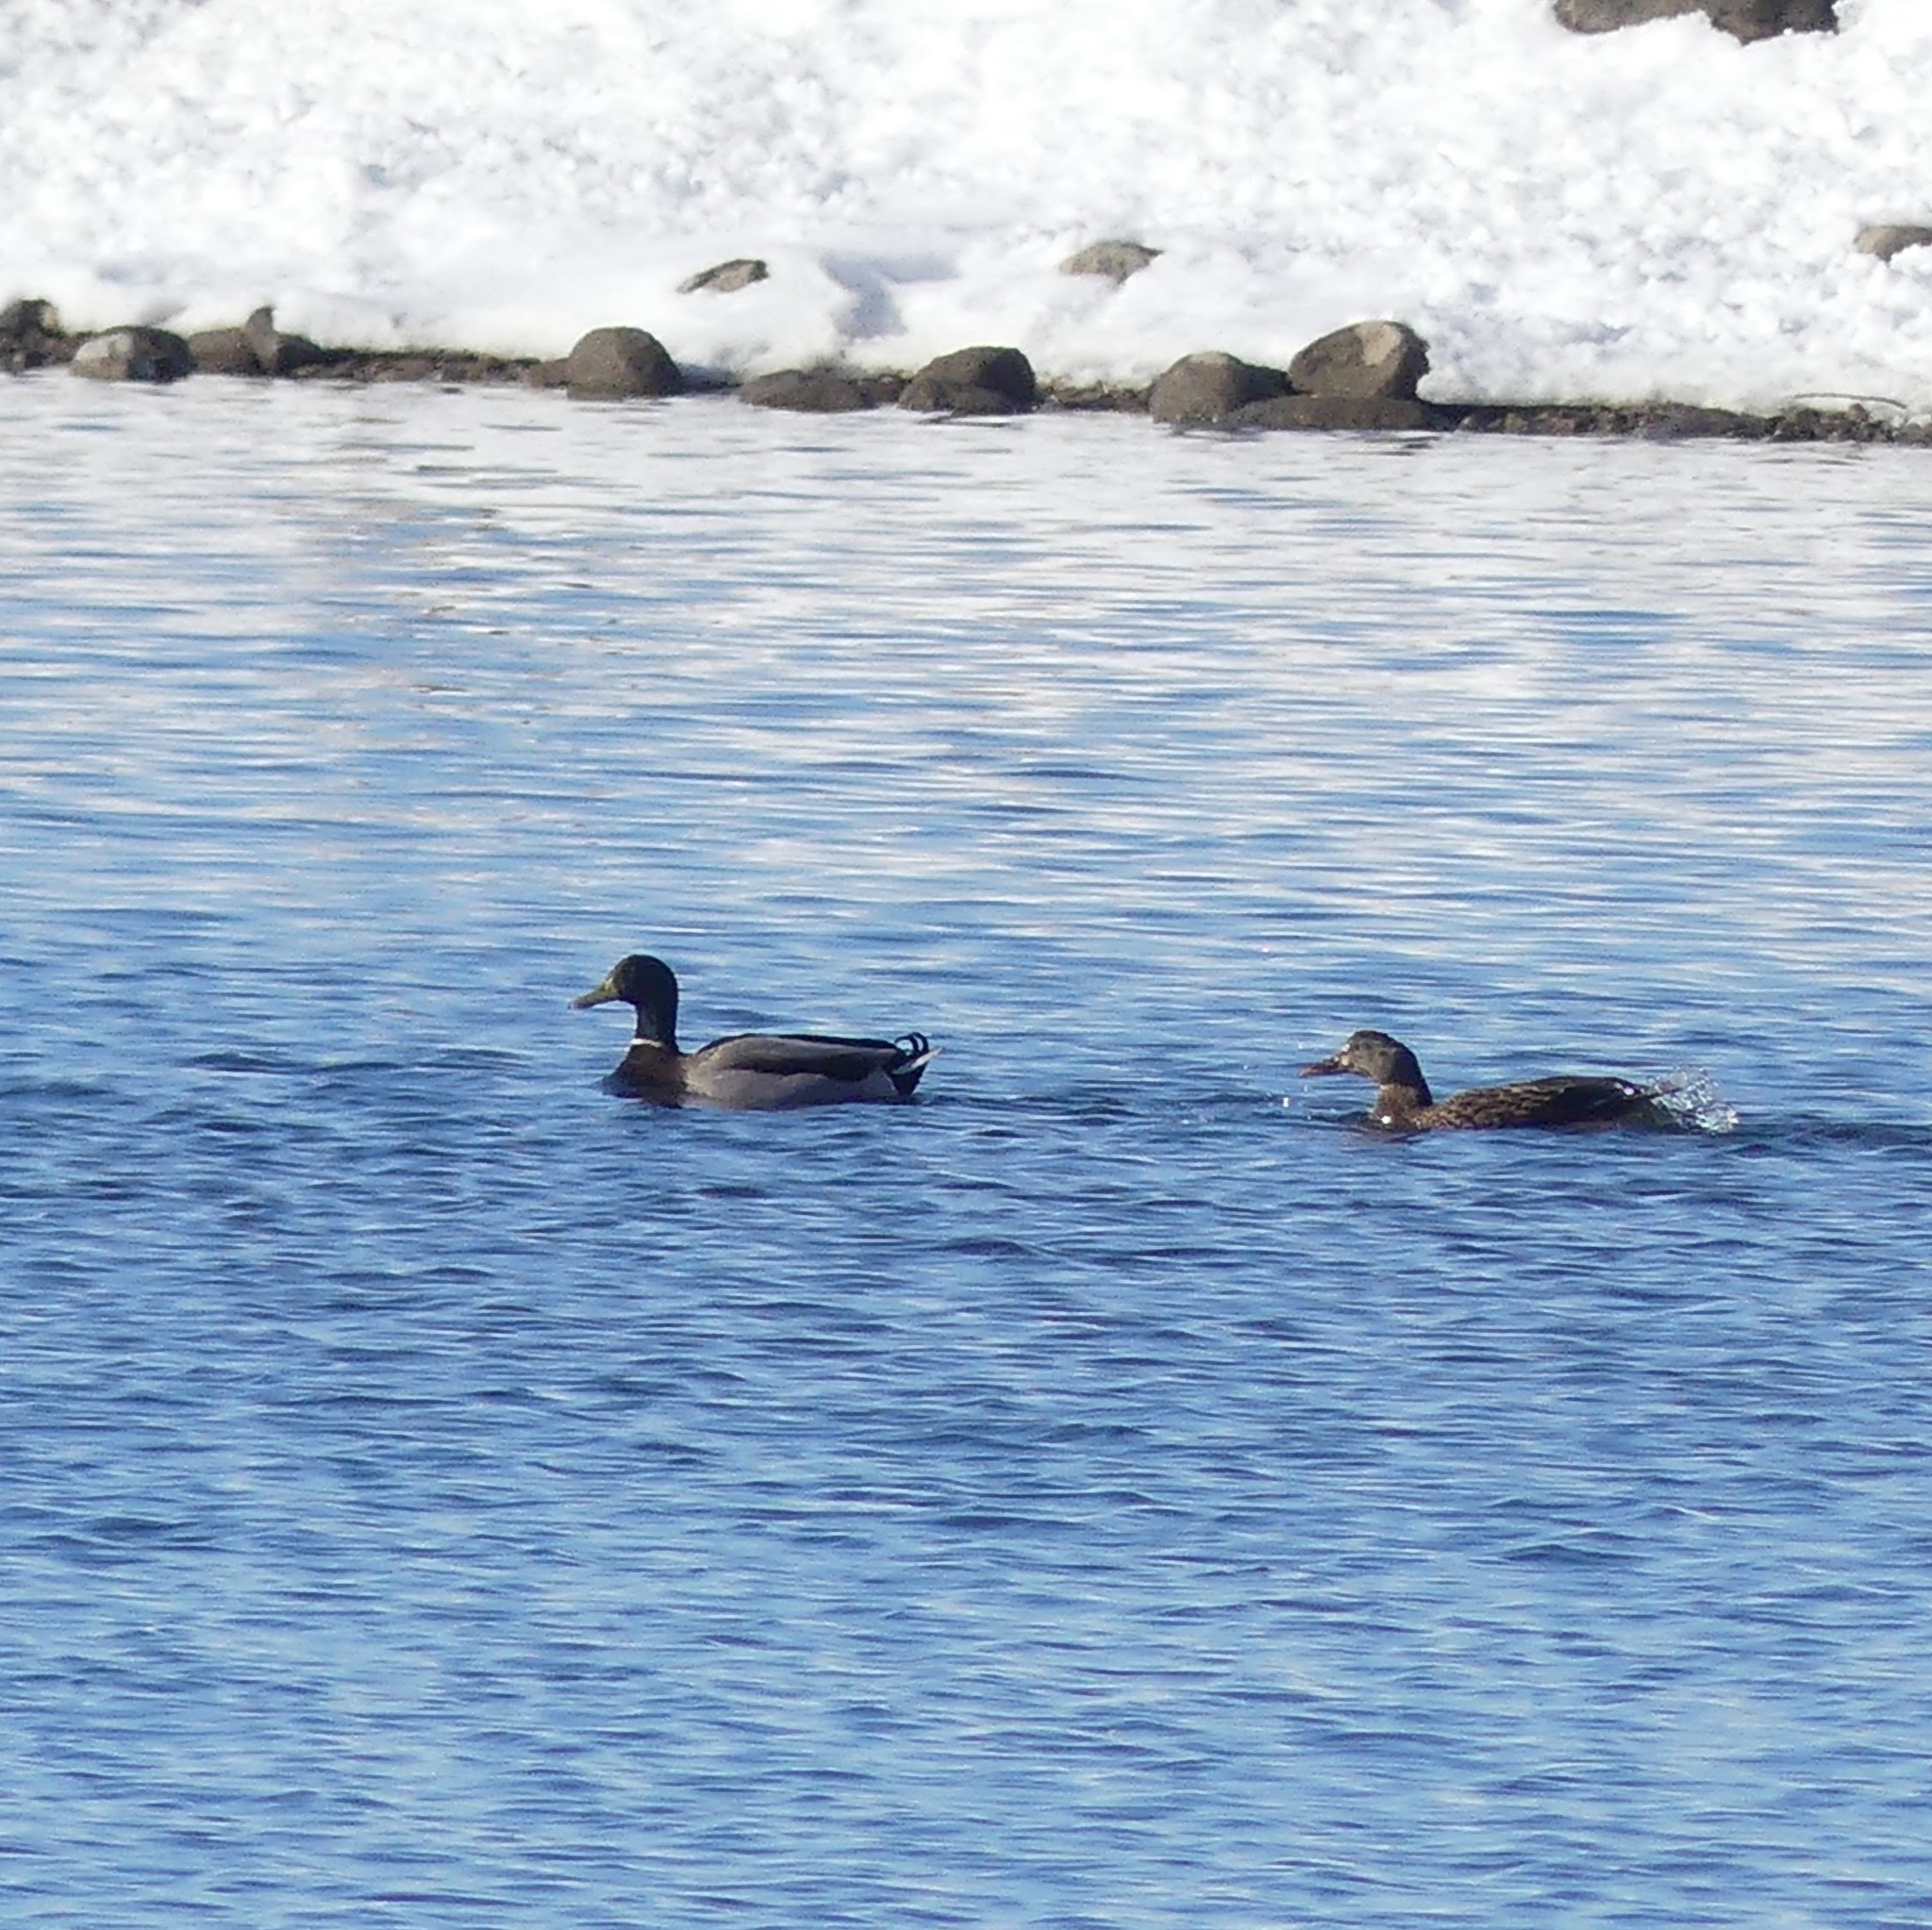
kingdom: Animalia
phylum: Chordata
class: Aves
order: Anseriformes
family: Anatidae
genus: Anas
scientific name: Anas platyrhynchos
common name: Mallard
